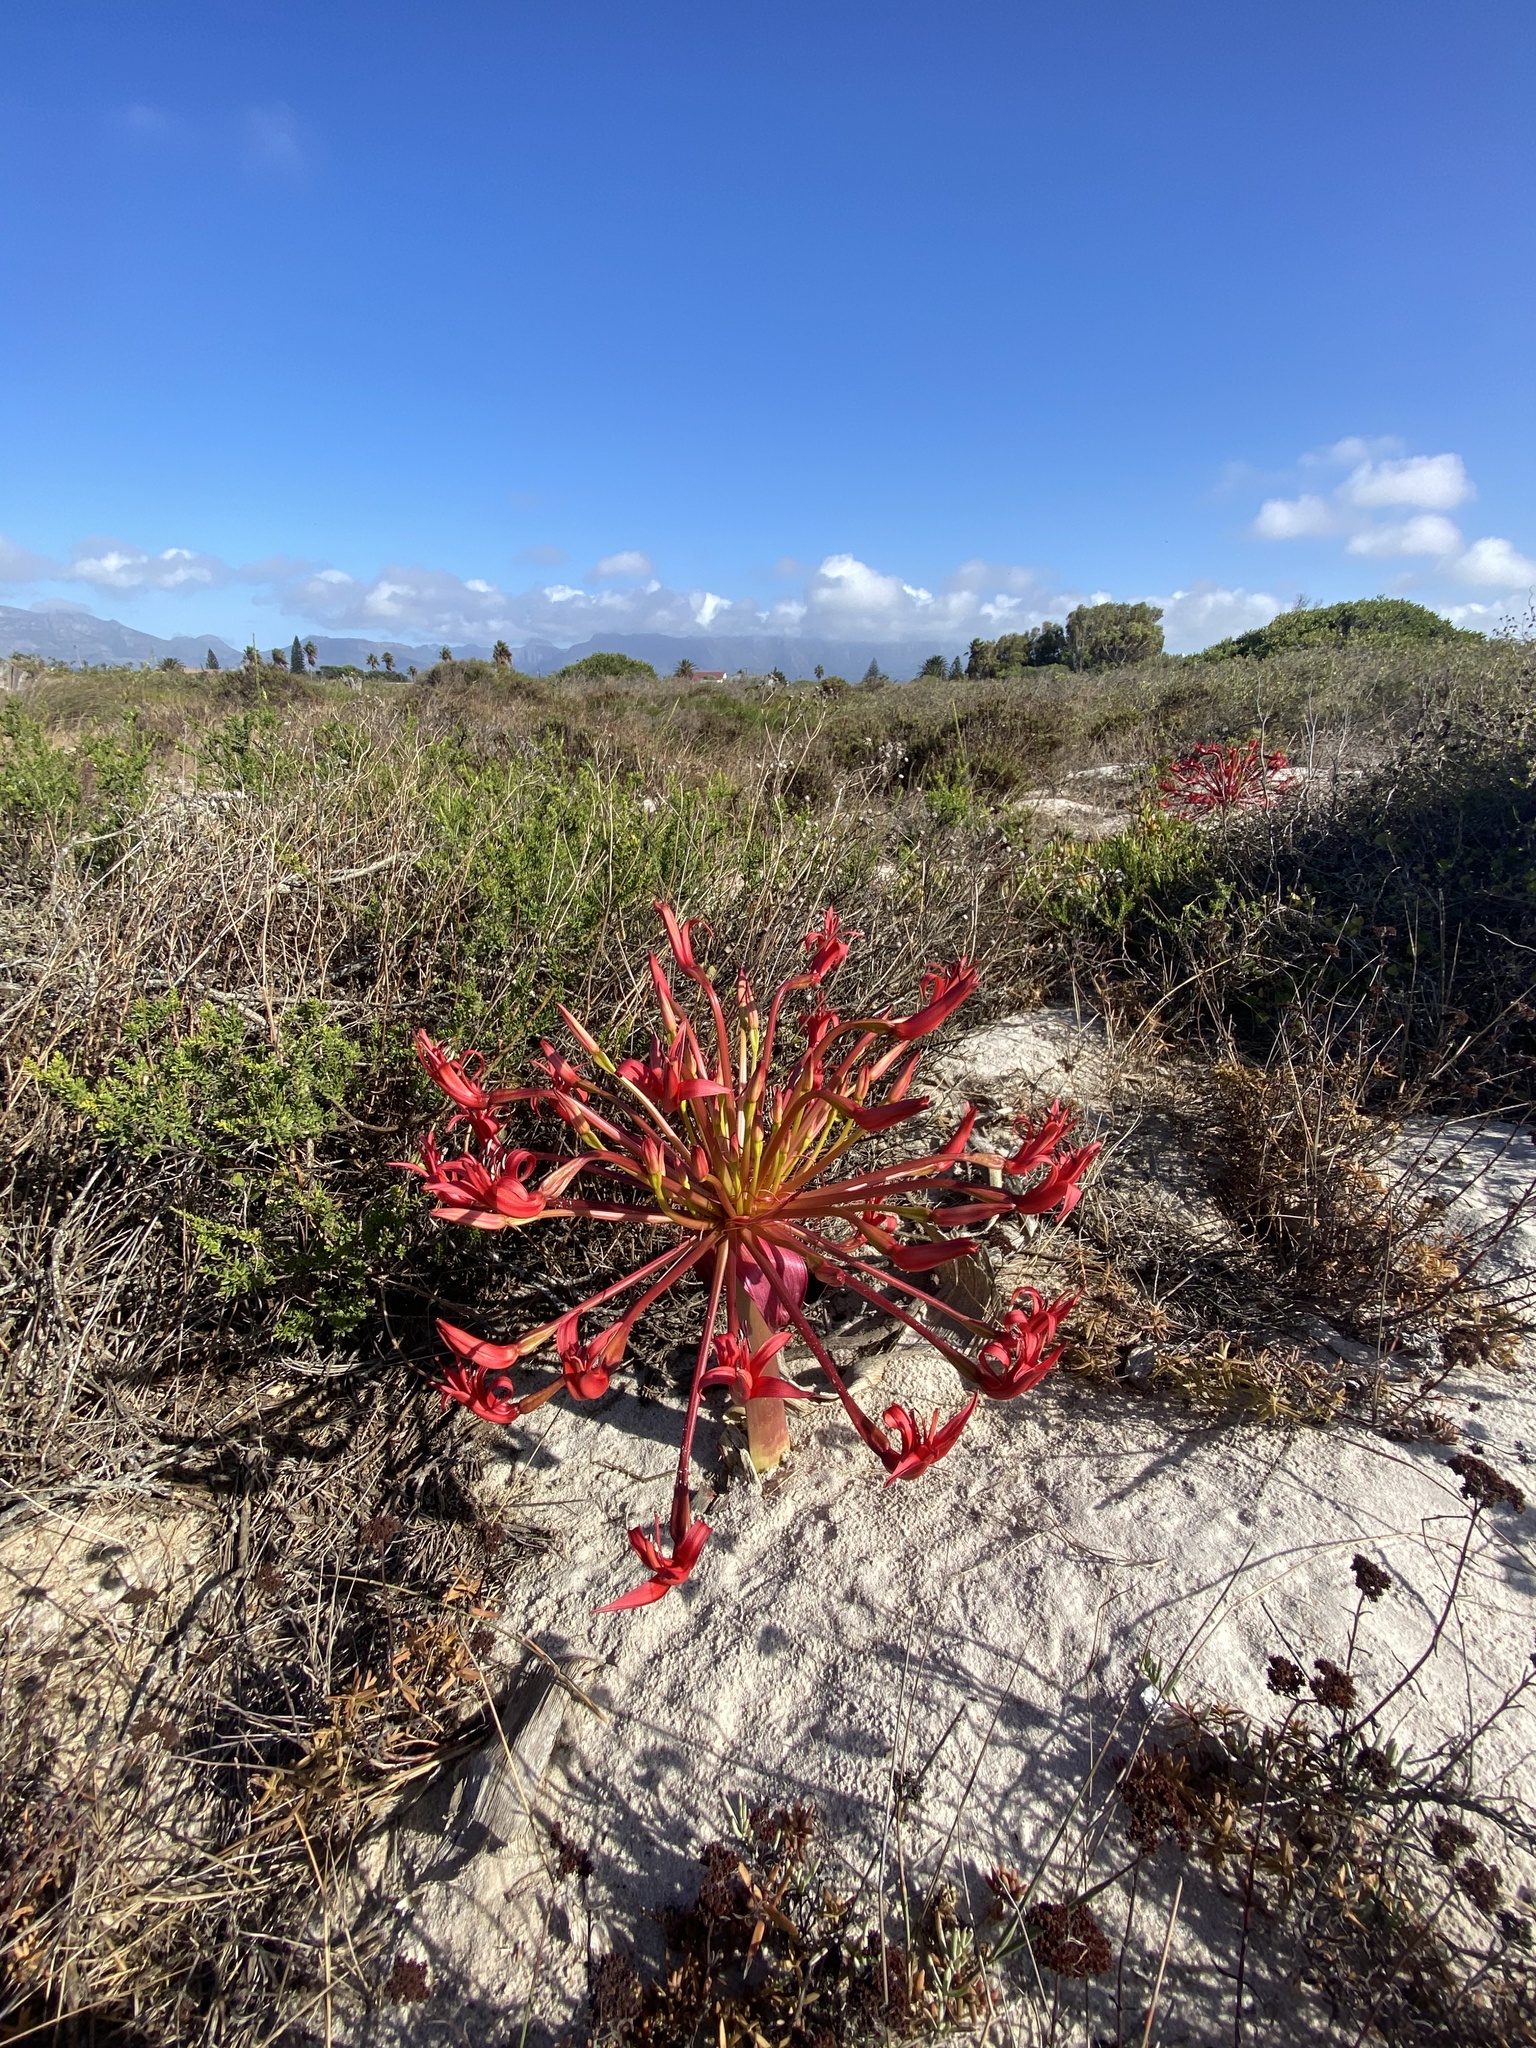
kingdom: Plantae
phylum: Tracheophyta
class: Liliopsida
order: Asparagales
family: Amaryllidaceae
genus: Brunsvigia
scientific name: Brunsvigia orientalis
